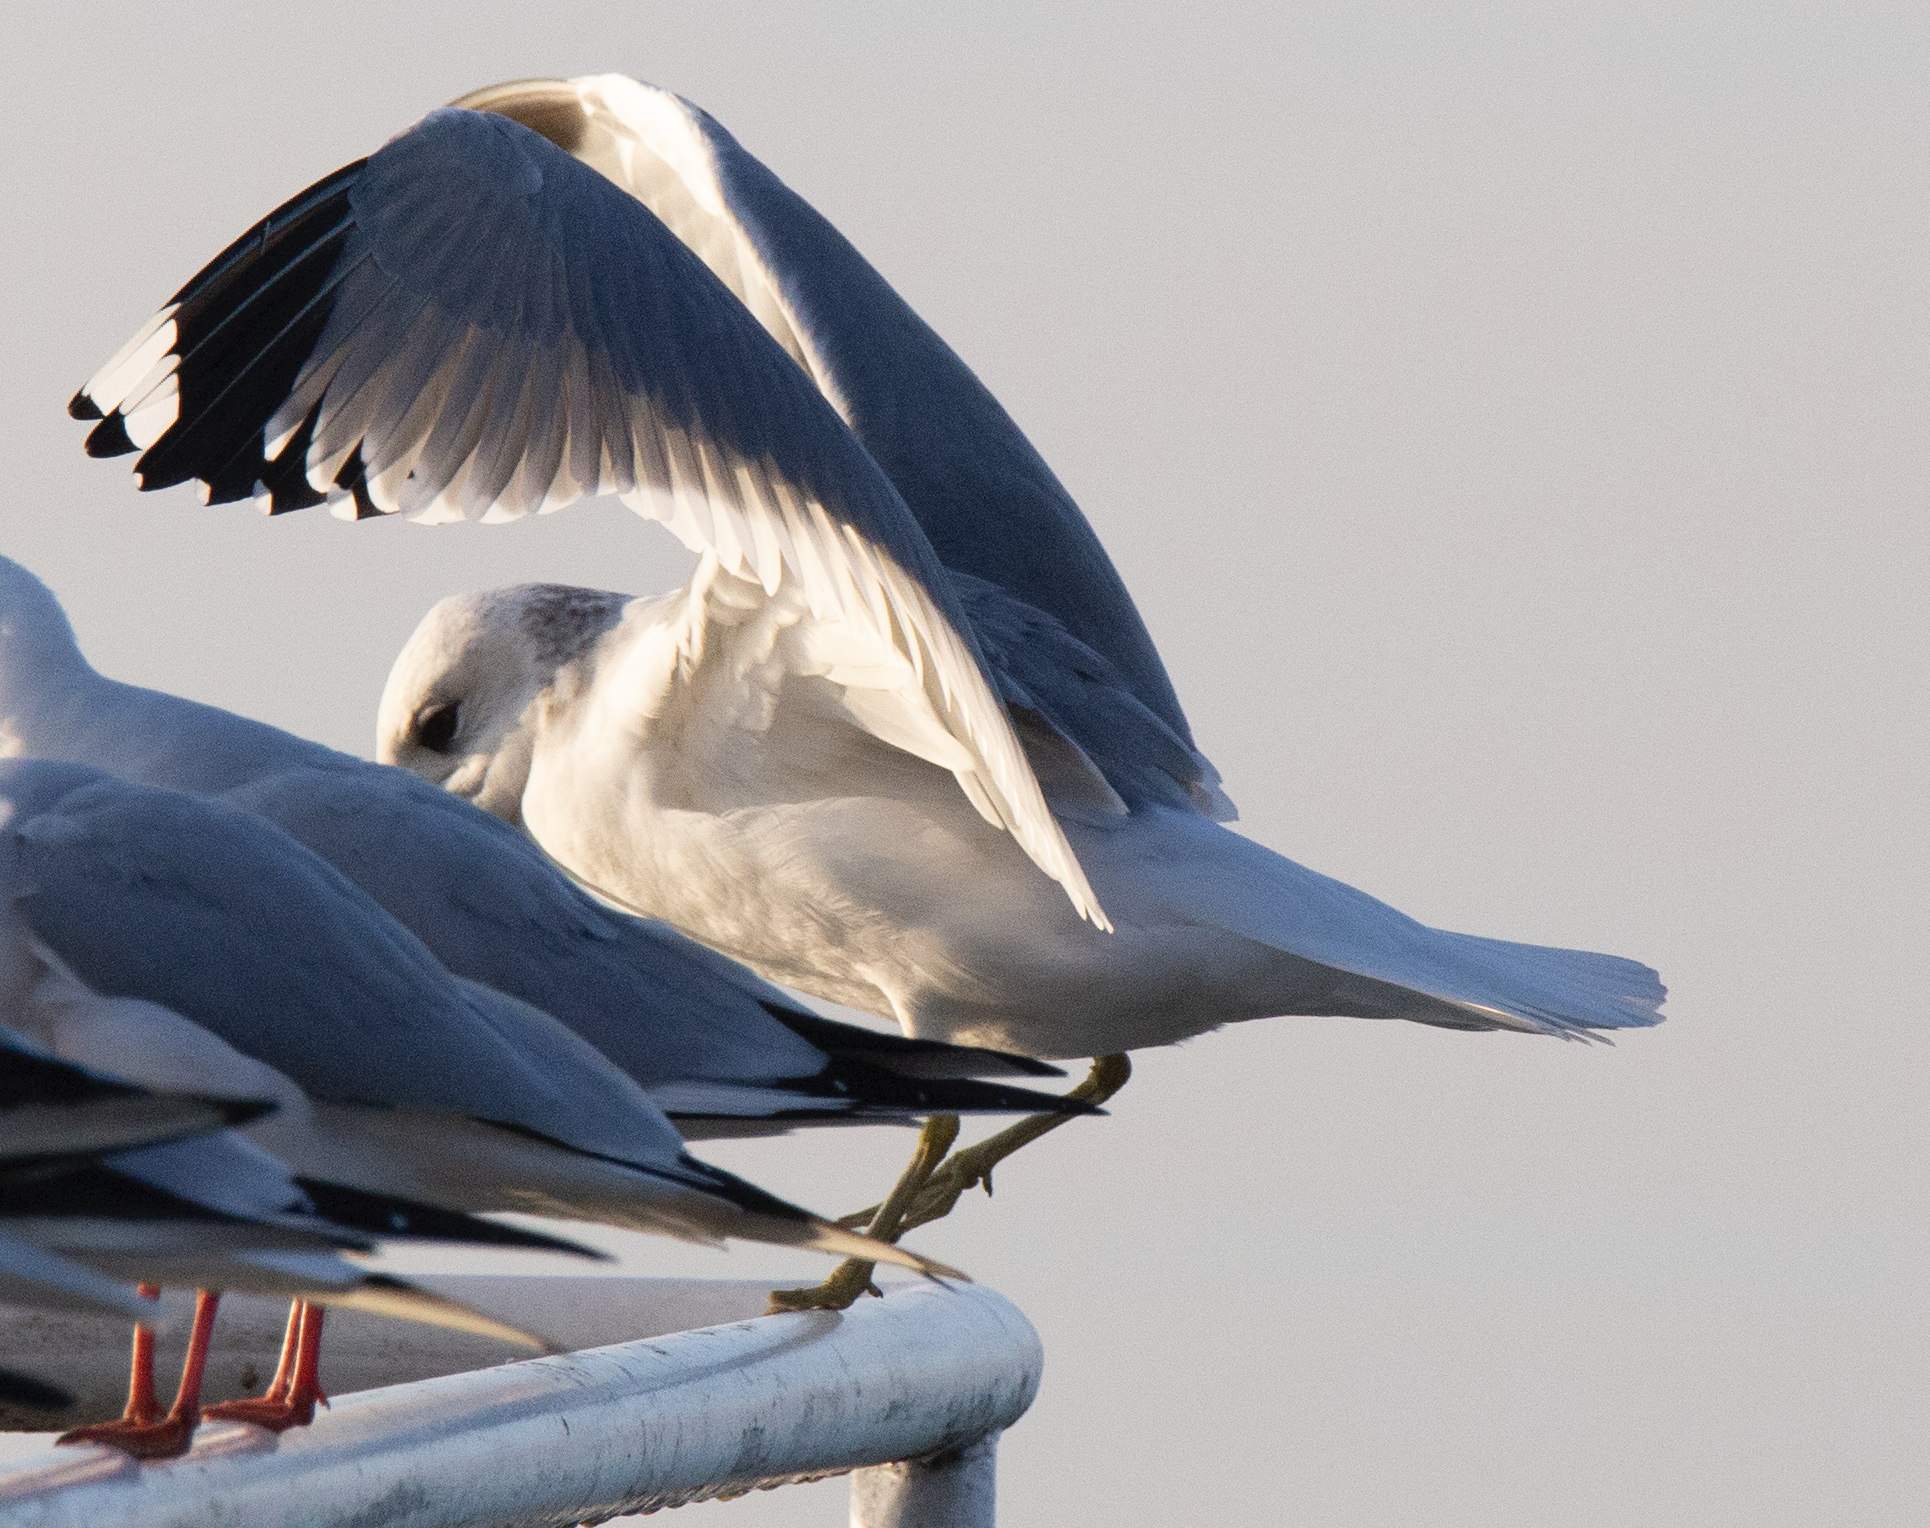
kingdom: Animalia
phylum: Chordata
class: Aves
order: Charadriiformes
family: Laridae
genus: Larus
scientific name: Larus canus
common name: Mew gull
